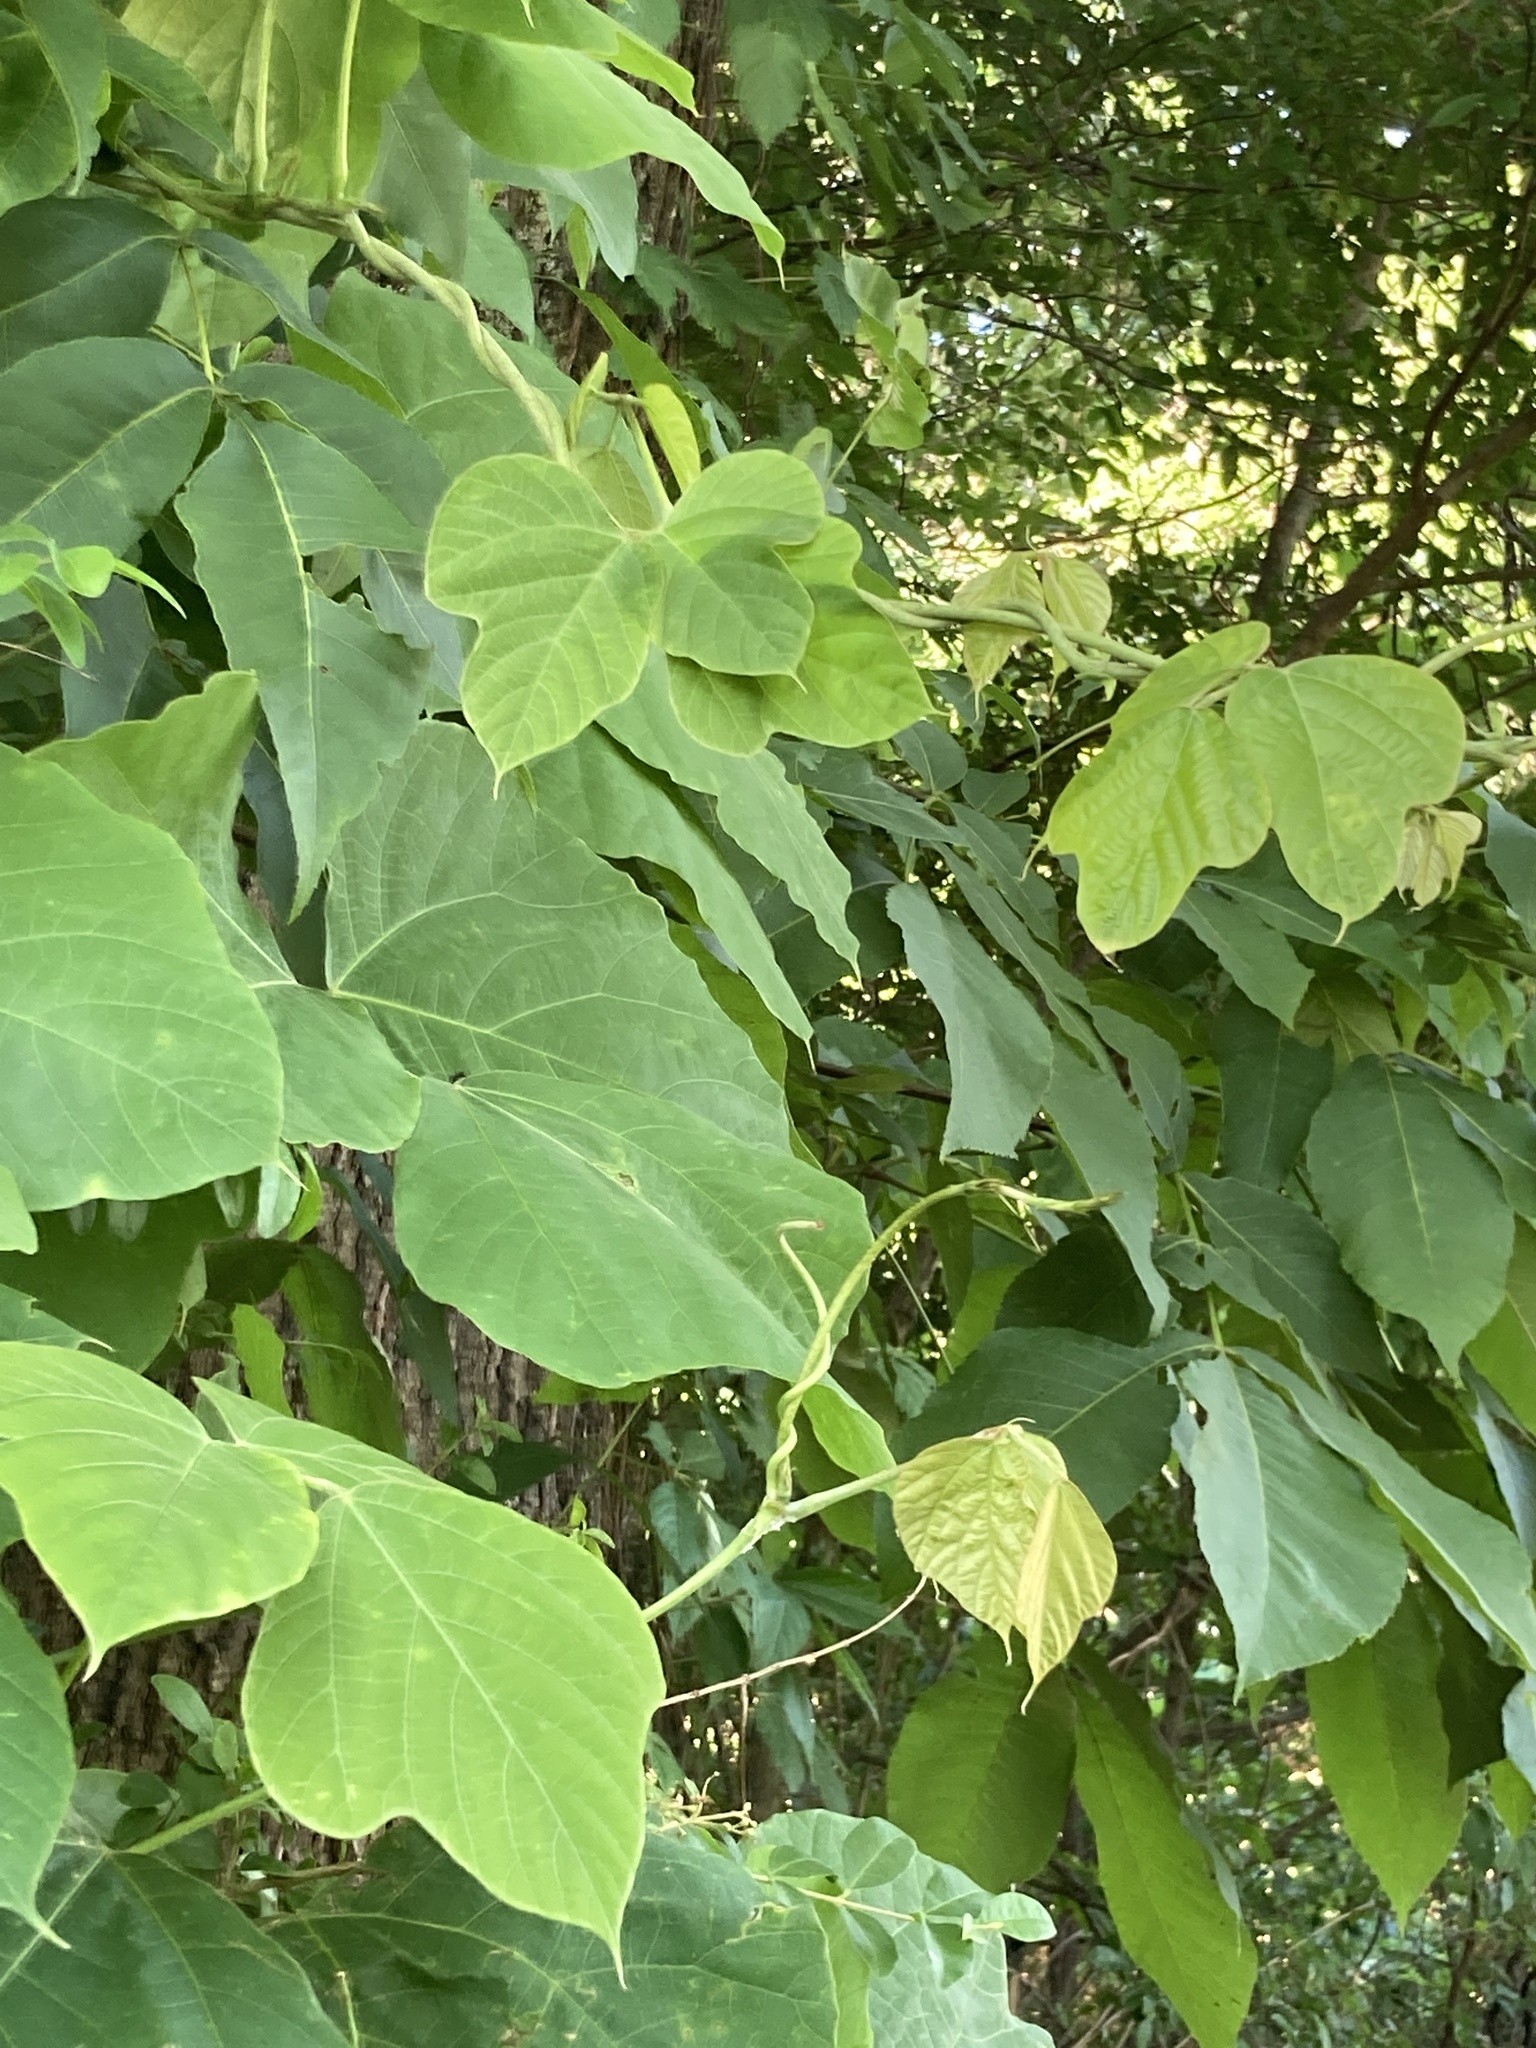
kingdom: Plantae
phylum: Tracheophyta
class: Magnoliopsida
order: Fabales
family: Fabaceae
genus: Pueraria
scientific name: Pueraria montana
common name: Kudzu
